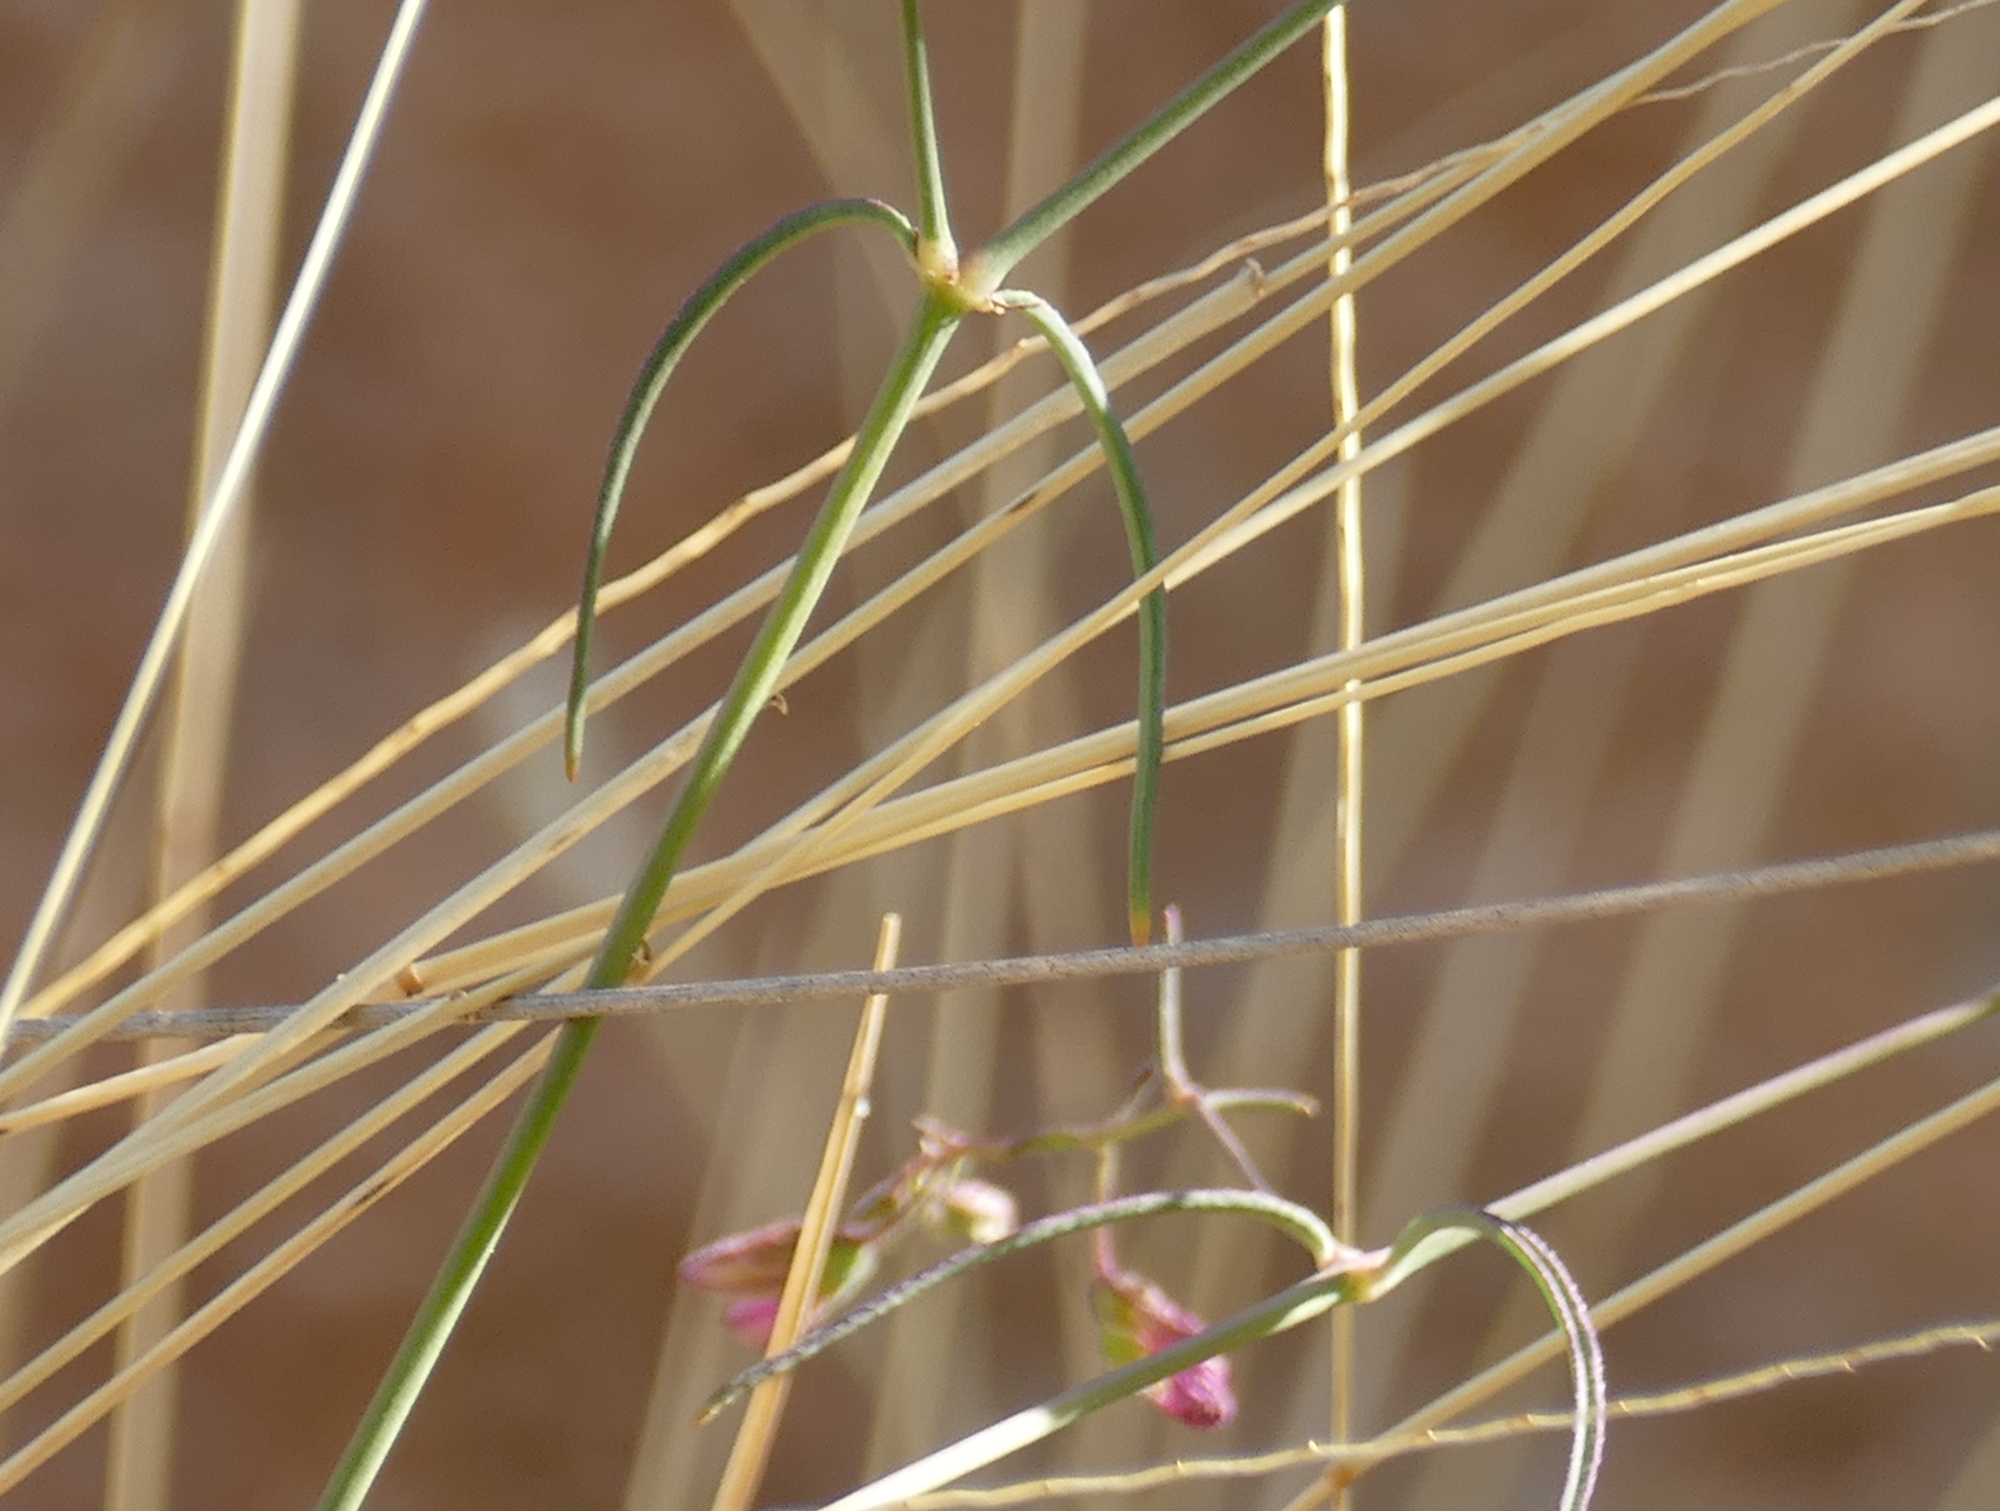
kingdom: Plantae
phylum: Tracheophyta
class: Magnoliopsida
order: Caryophyllales
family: Nyctaginaceae
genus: Mirabilis
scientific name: Mirabilis coccinea
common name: Scarlet four-o'clock
